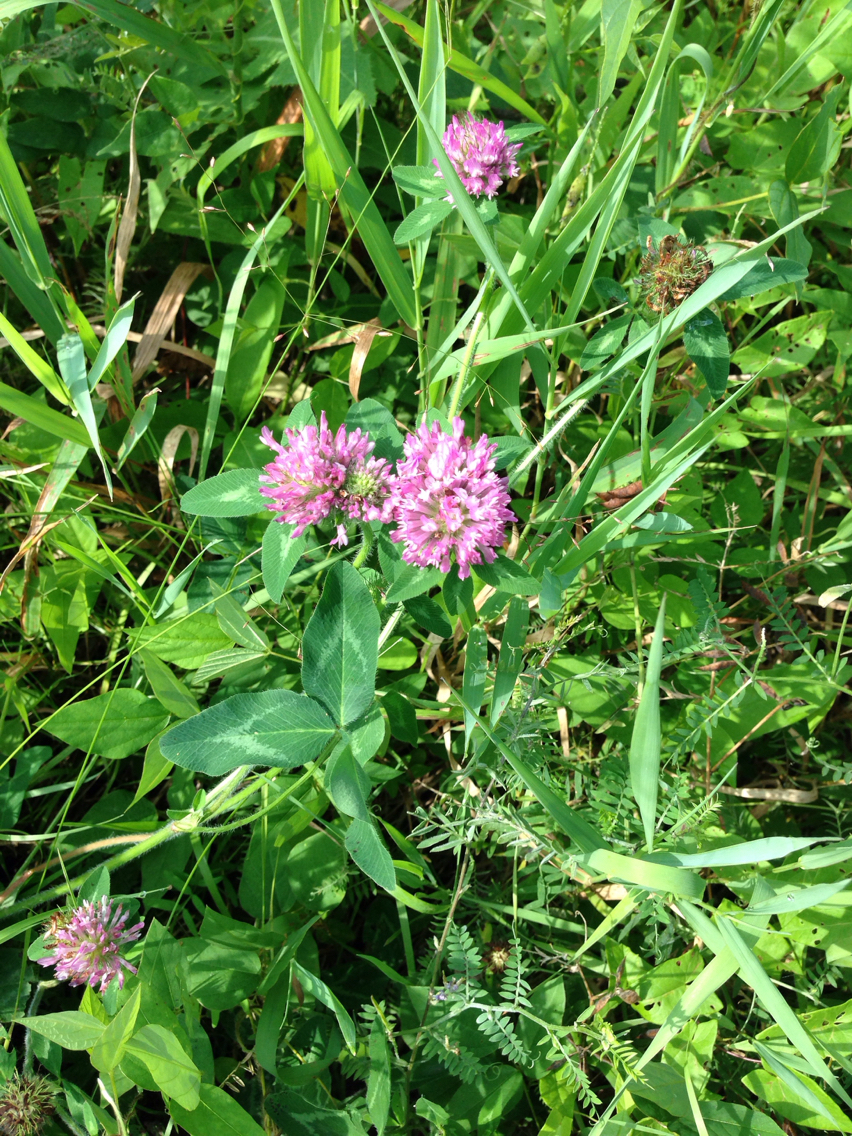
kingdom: Plantae
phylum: Tracheophyta
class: Magnoliopsida
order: Fabales
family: Fabaceae
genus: Trifolium
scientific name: Trifolium pratense
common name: Red clover
